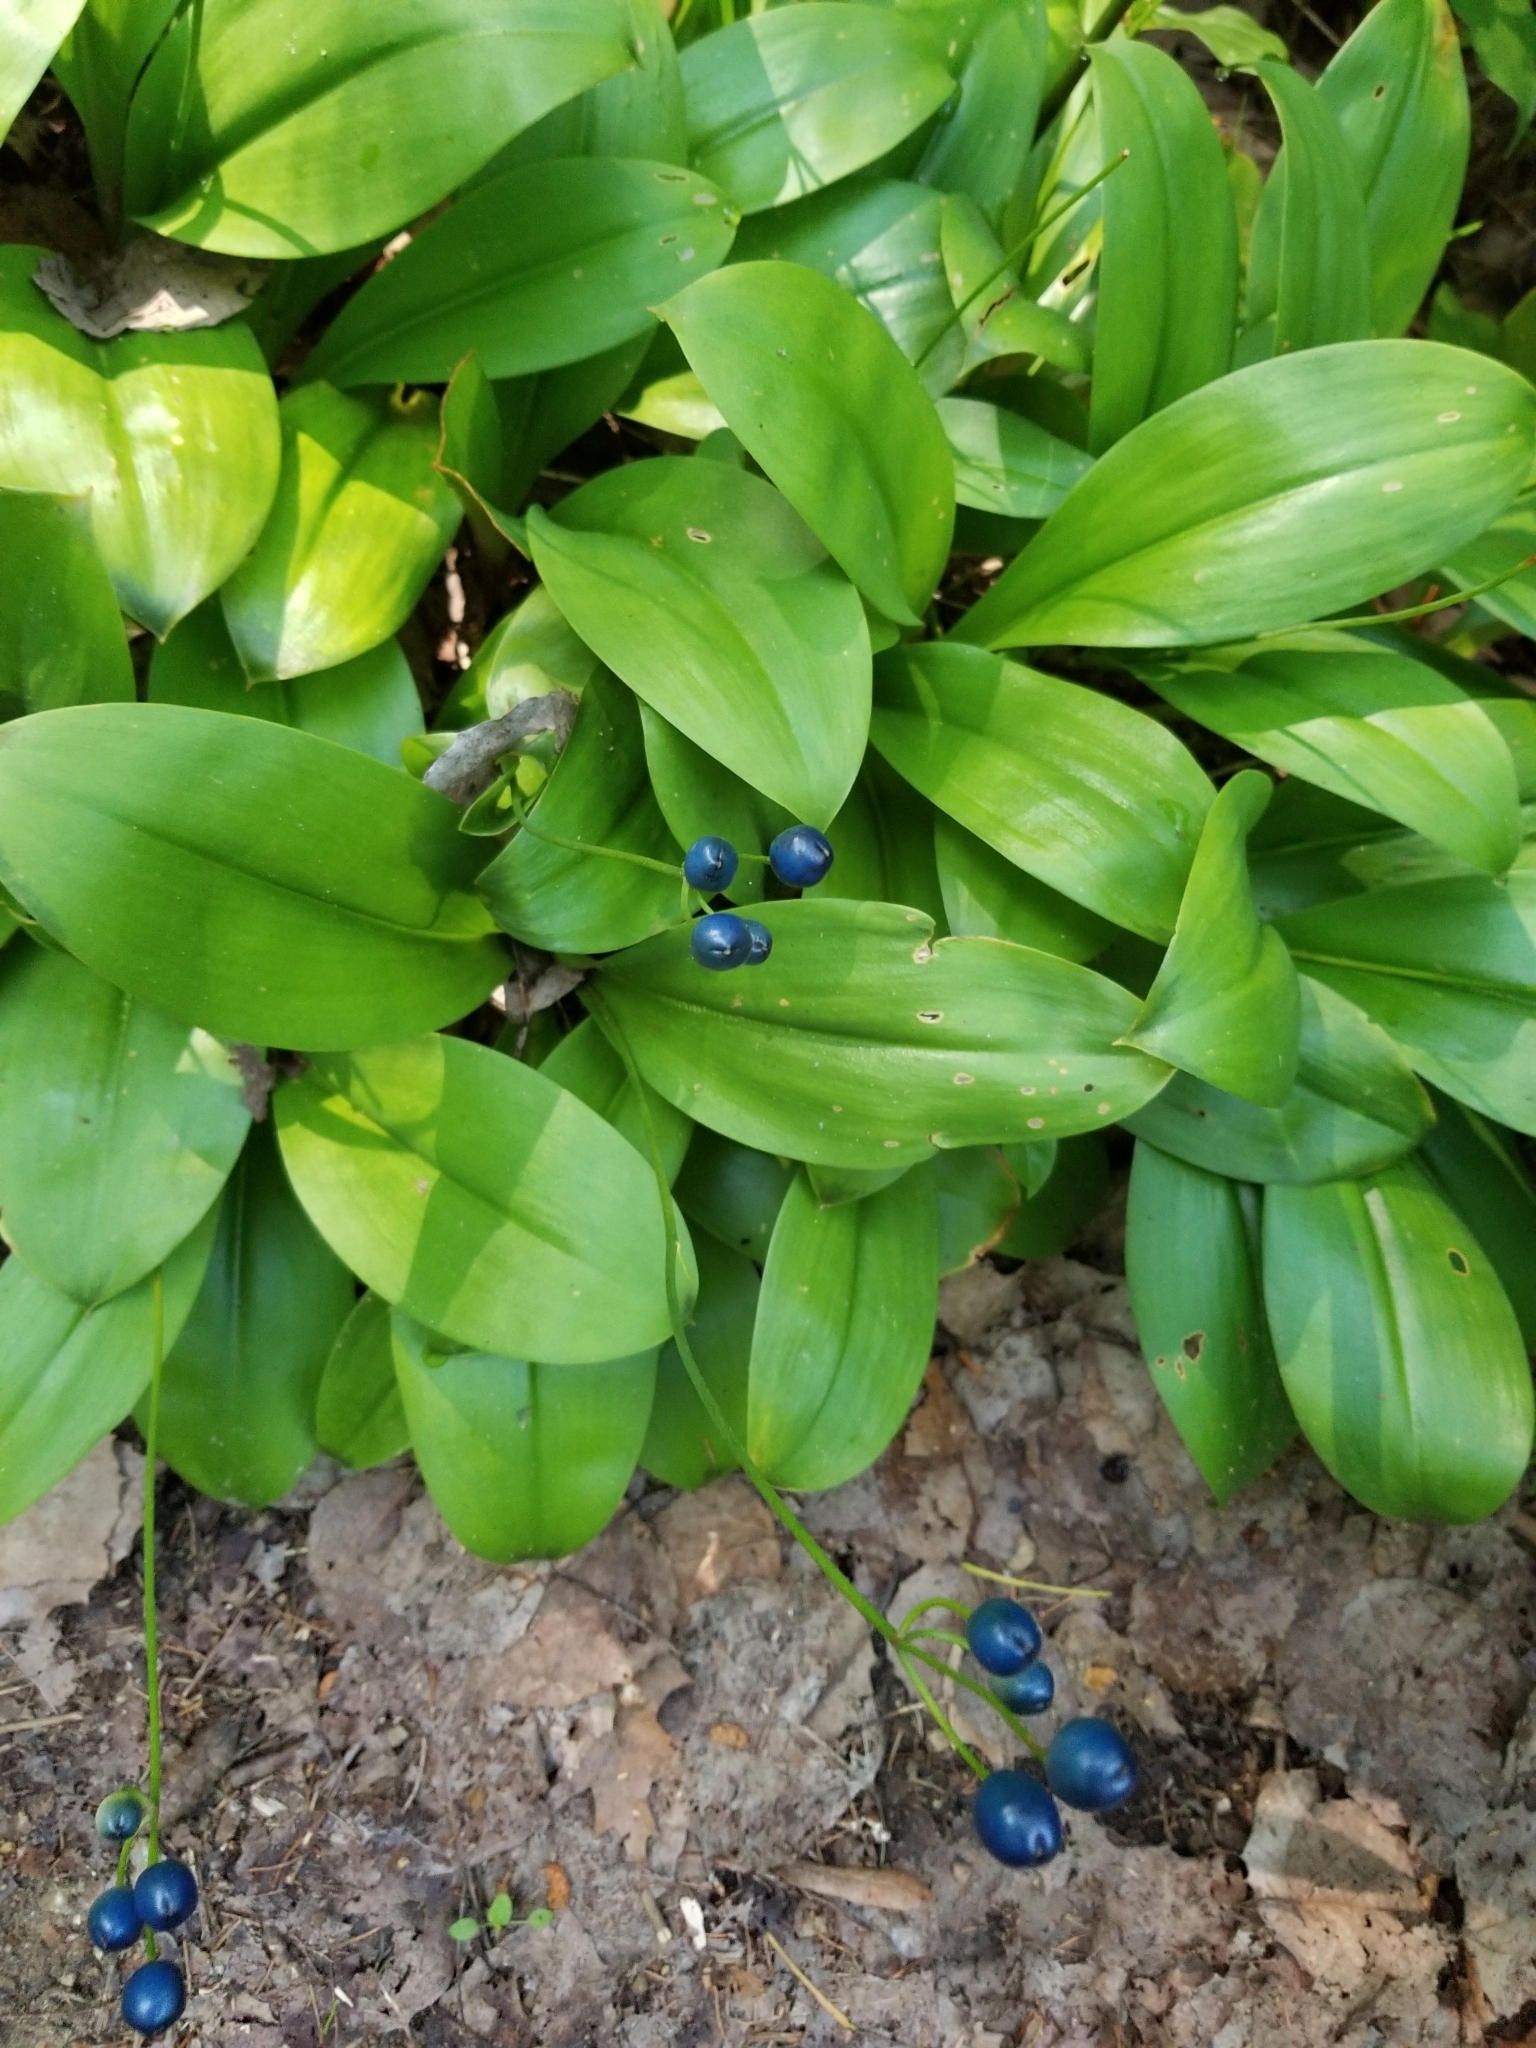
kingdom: Plantae
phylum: Tracheophyta
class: Liliopsida
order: Liliales
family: Liliaceae
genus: Clintonia
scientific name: Clintonia borealis
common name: Yellow clintonia
